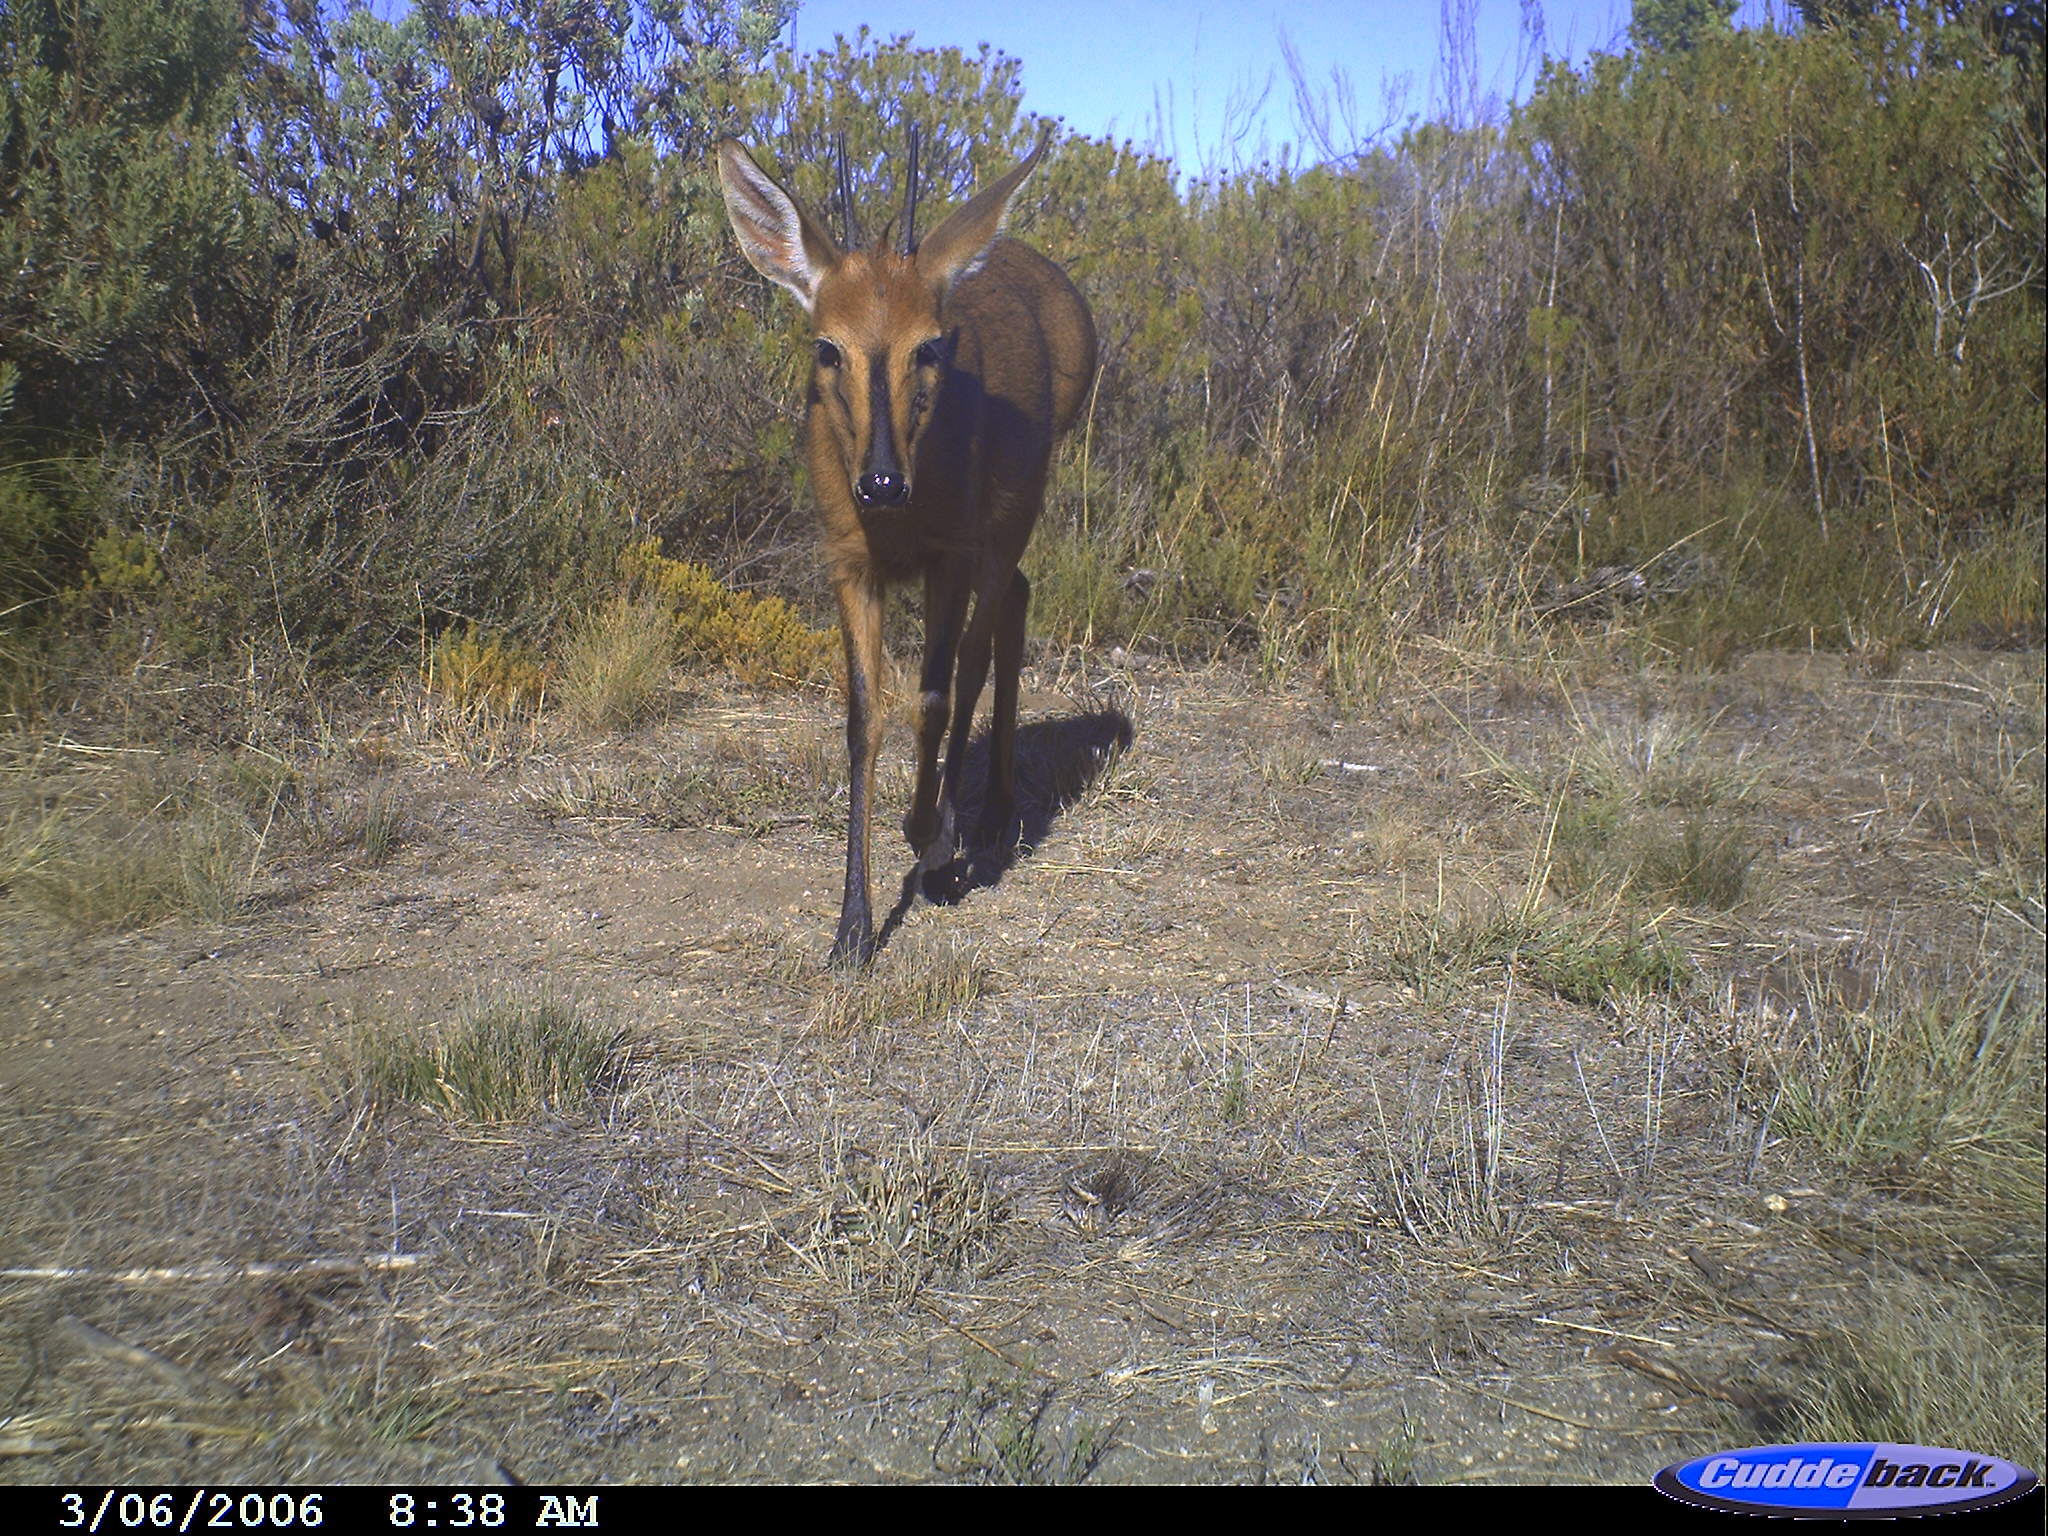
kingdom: Animalia
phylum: Chordata
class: Mammalia
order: Artiodactyla
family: Bovidae
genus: Sylvicapra
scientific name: Sylvicapra grimmia
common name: Bush duiker
